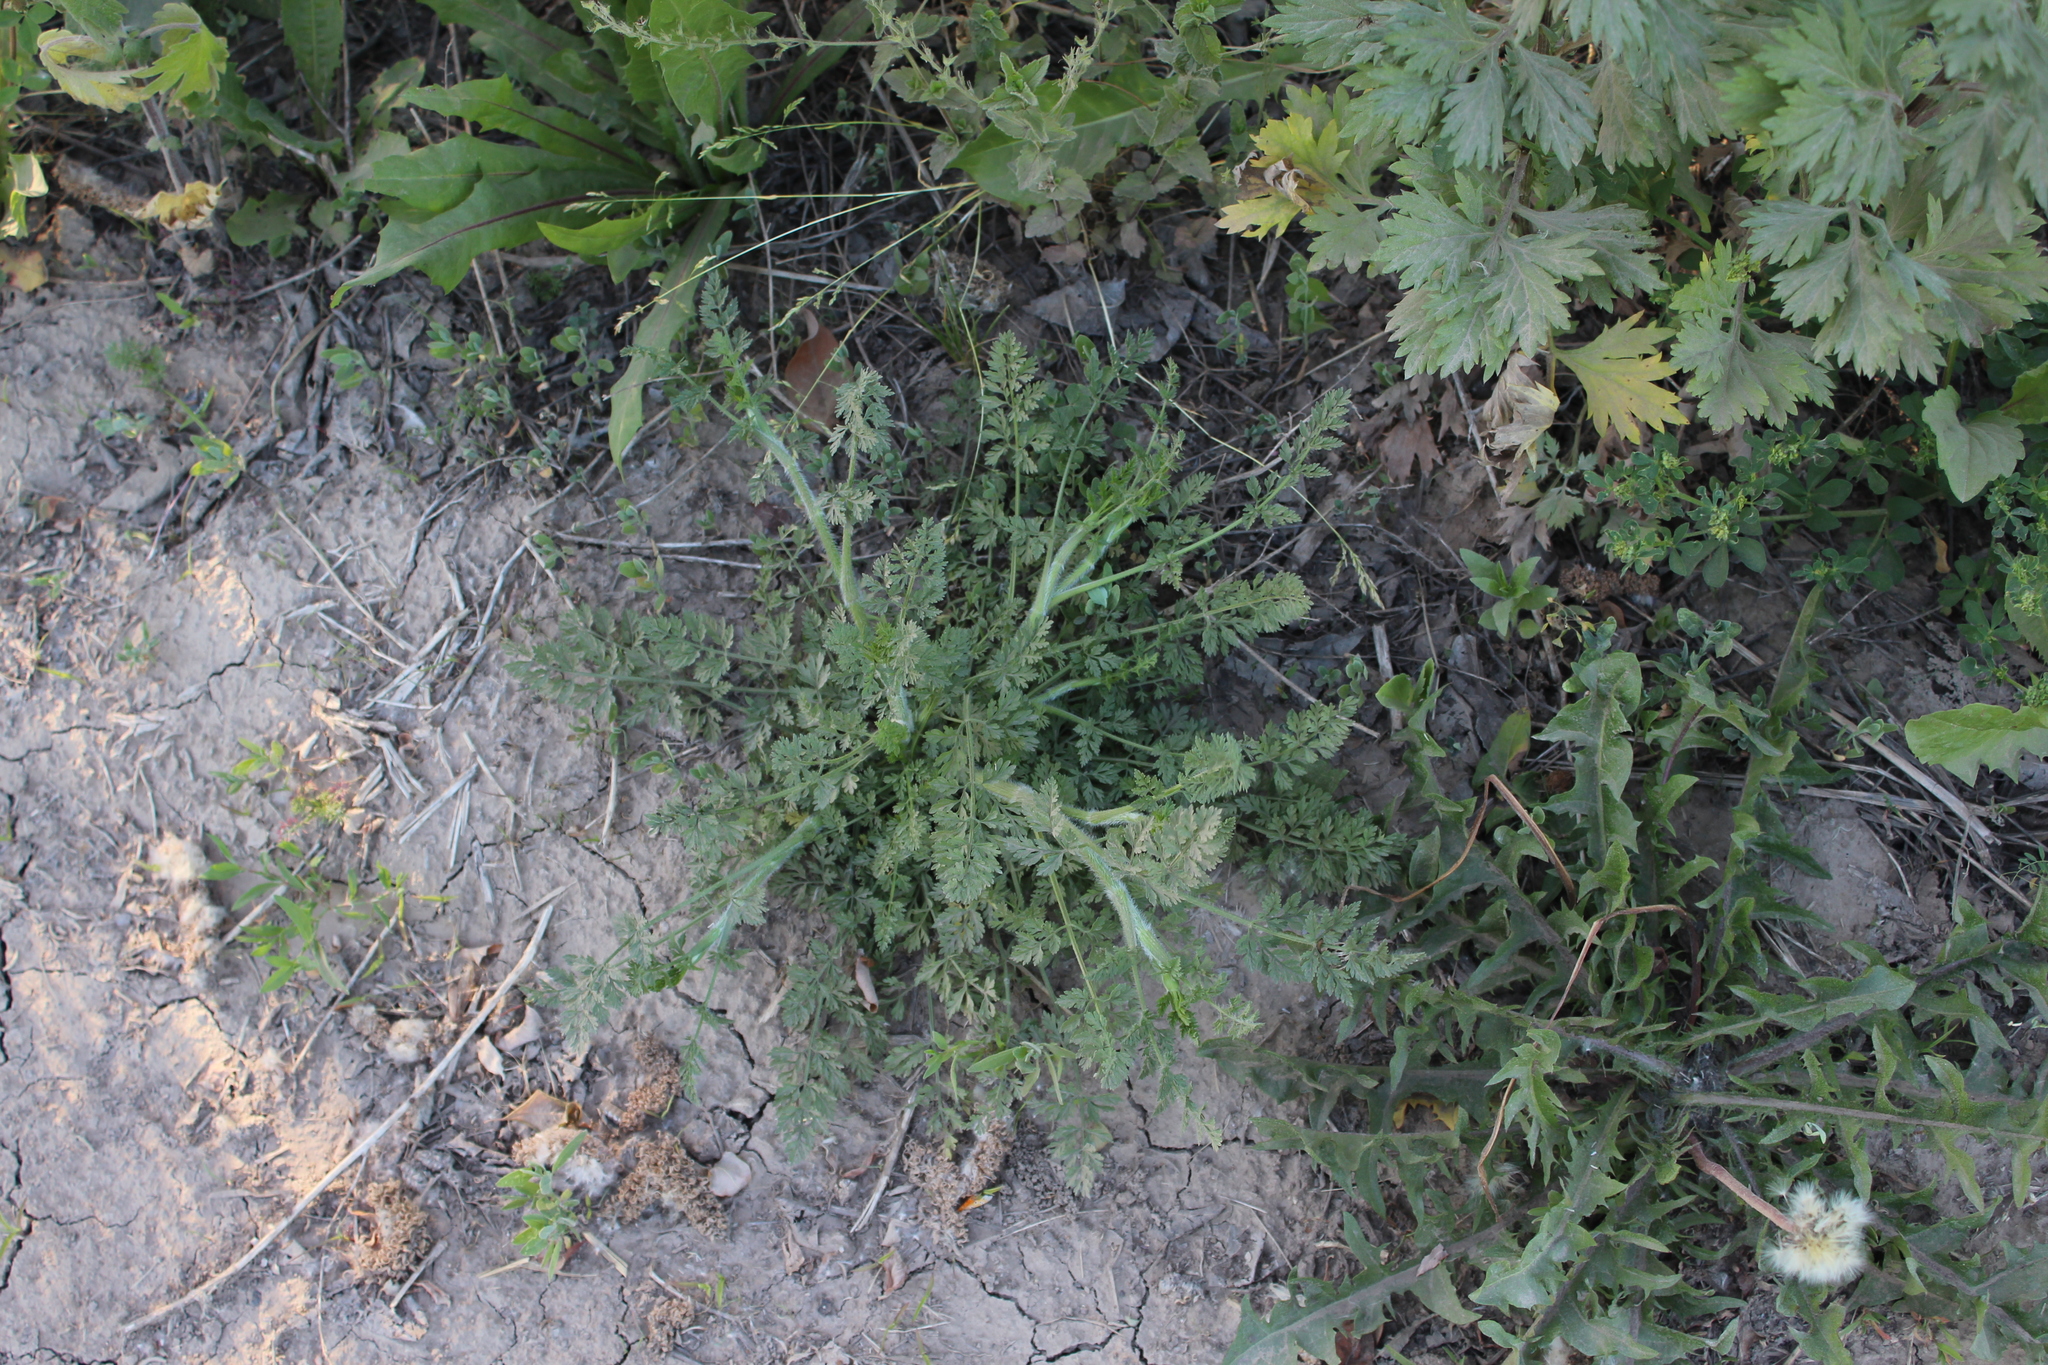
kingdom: Plantae
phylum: Tracheophyta
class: Magnoliopsida
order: Apiales
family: Apiaceae
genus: Daucus
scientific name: Daucus carota
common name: Wild carrot
